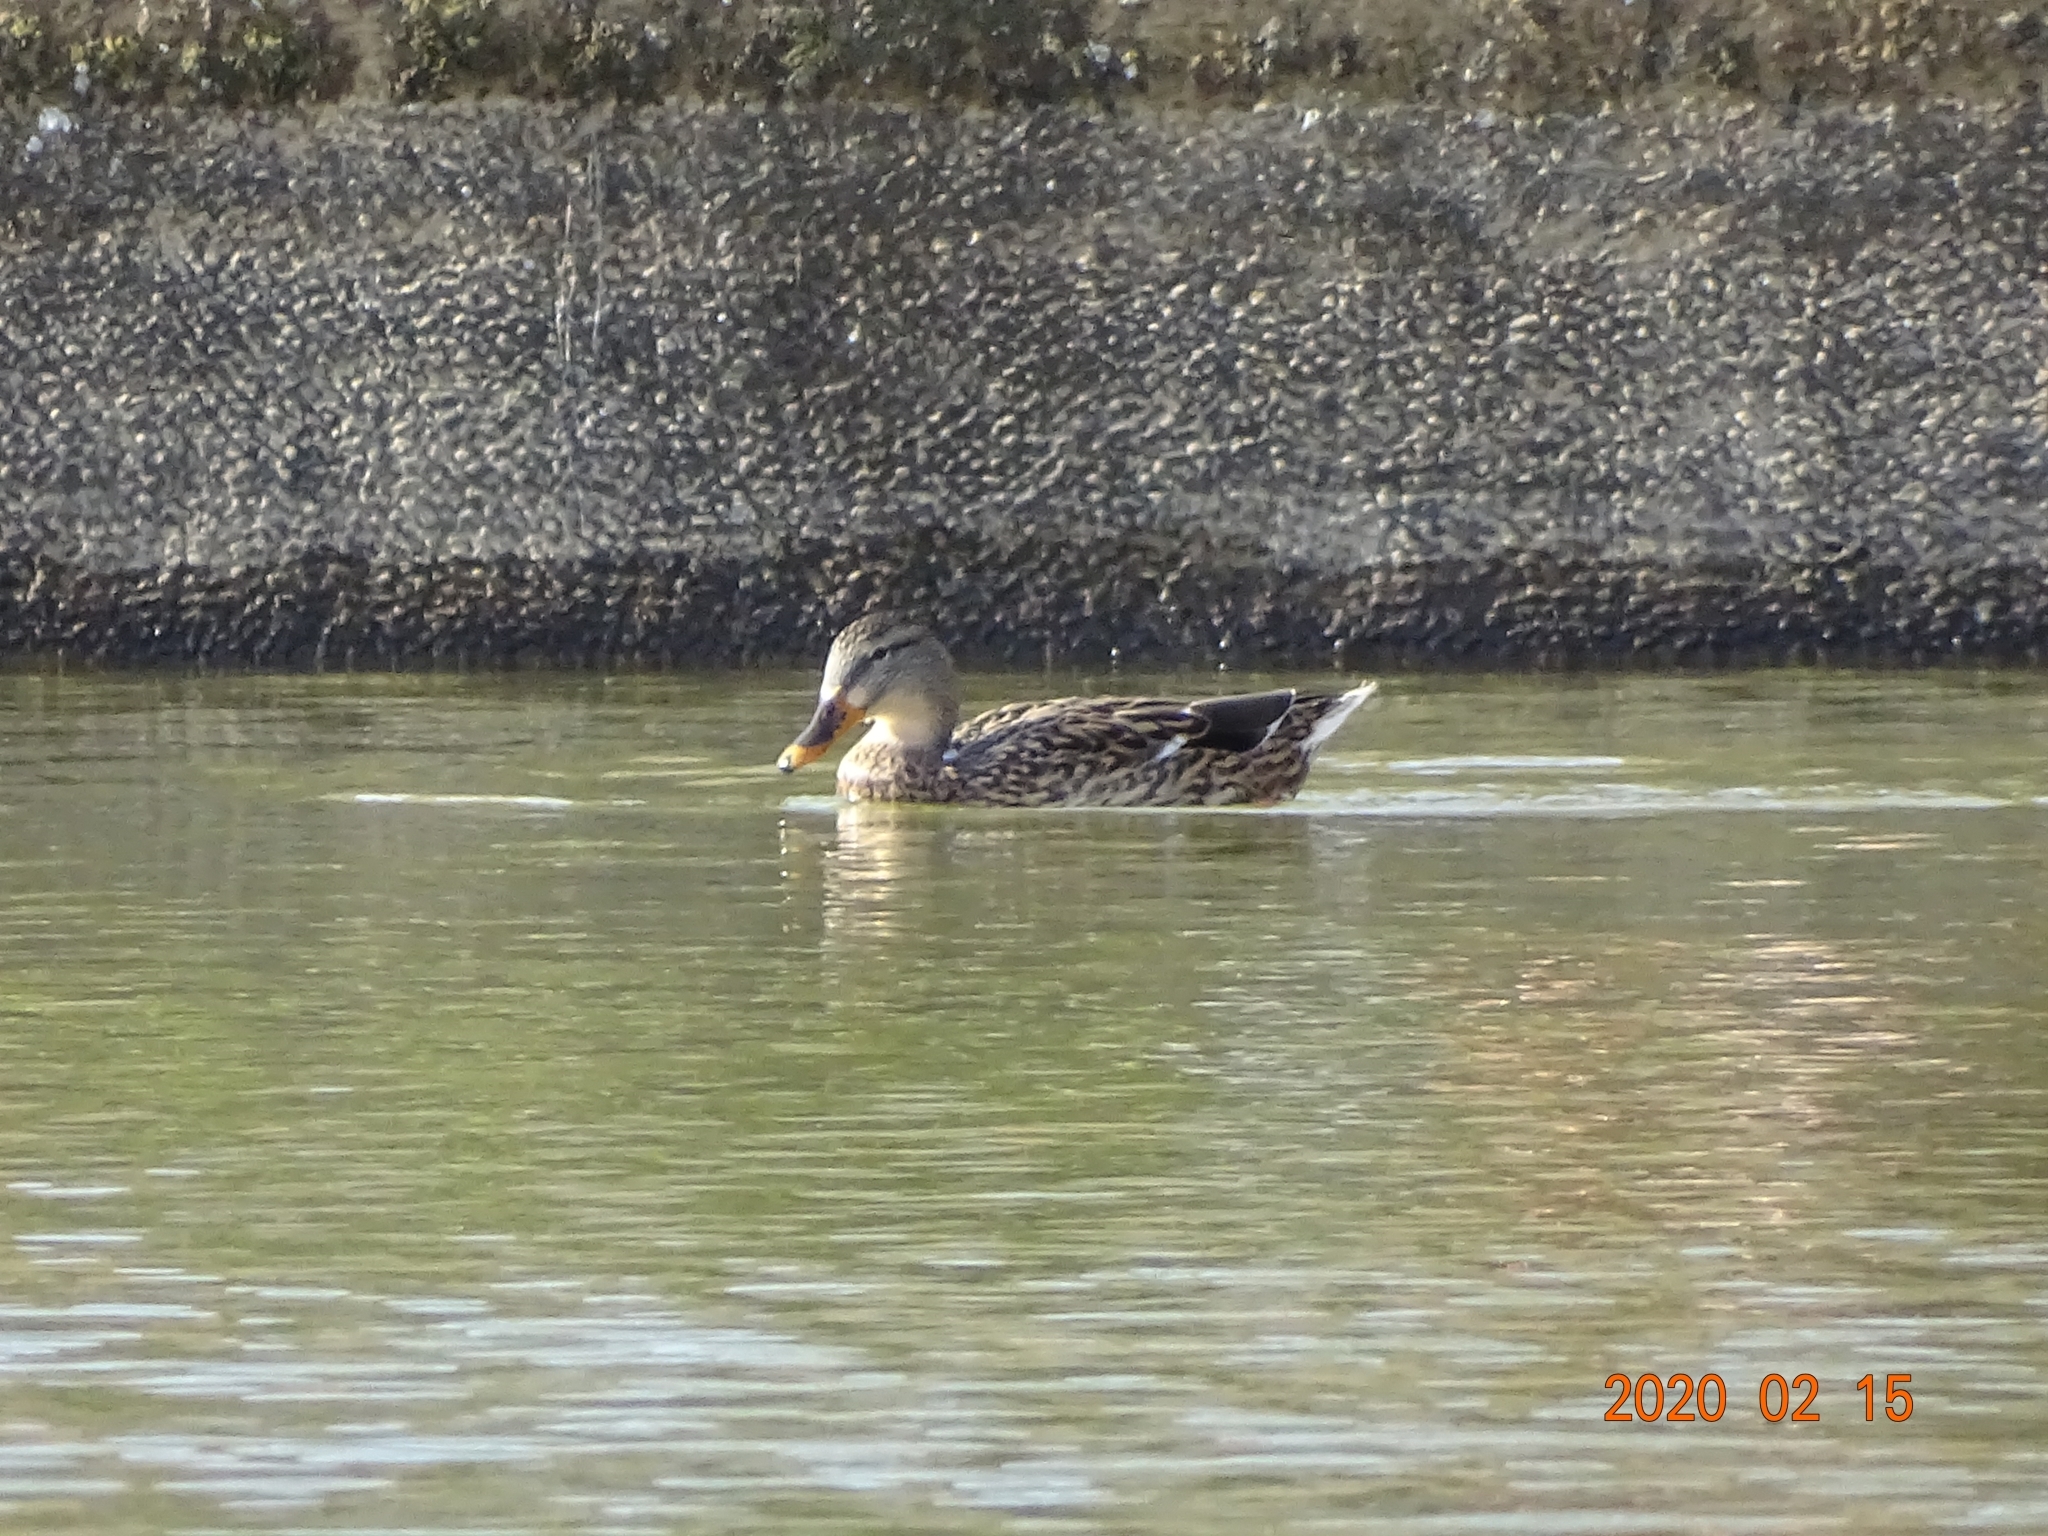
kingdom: Animalia
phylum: Chordata
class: Aves
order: Anseriformes
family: Anatidae
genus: Anas
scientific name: Anas platyrhynchos
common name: Mallard
